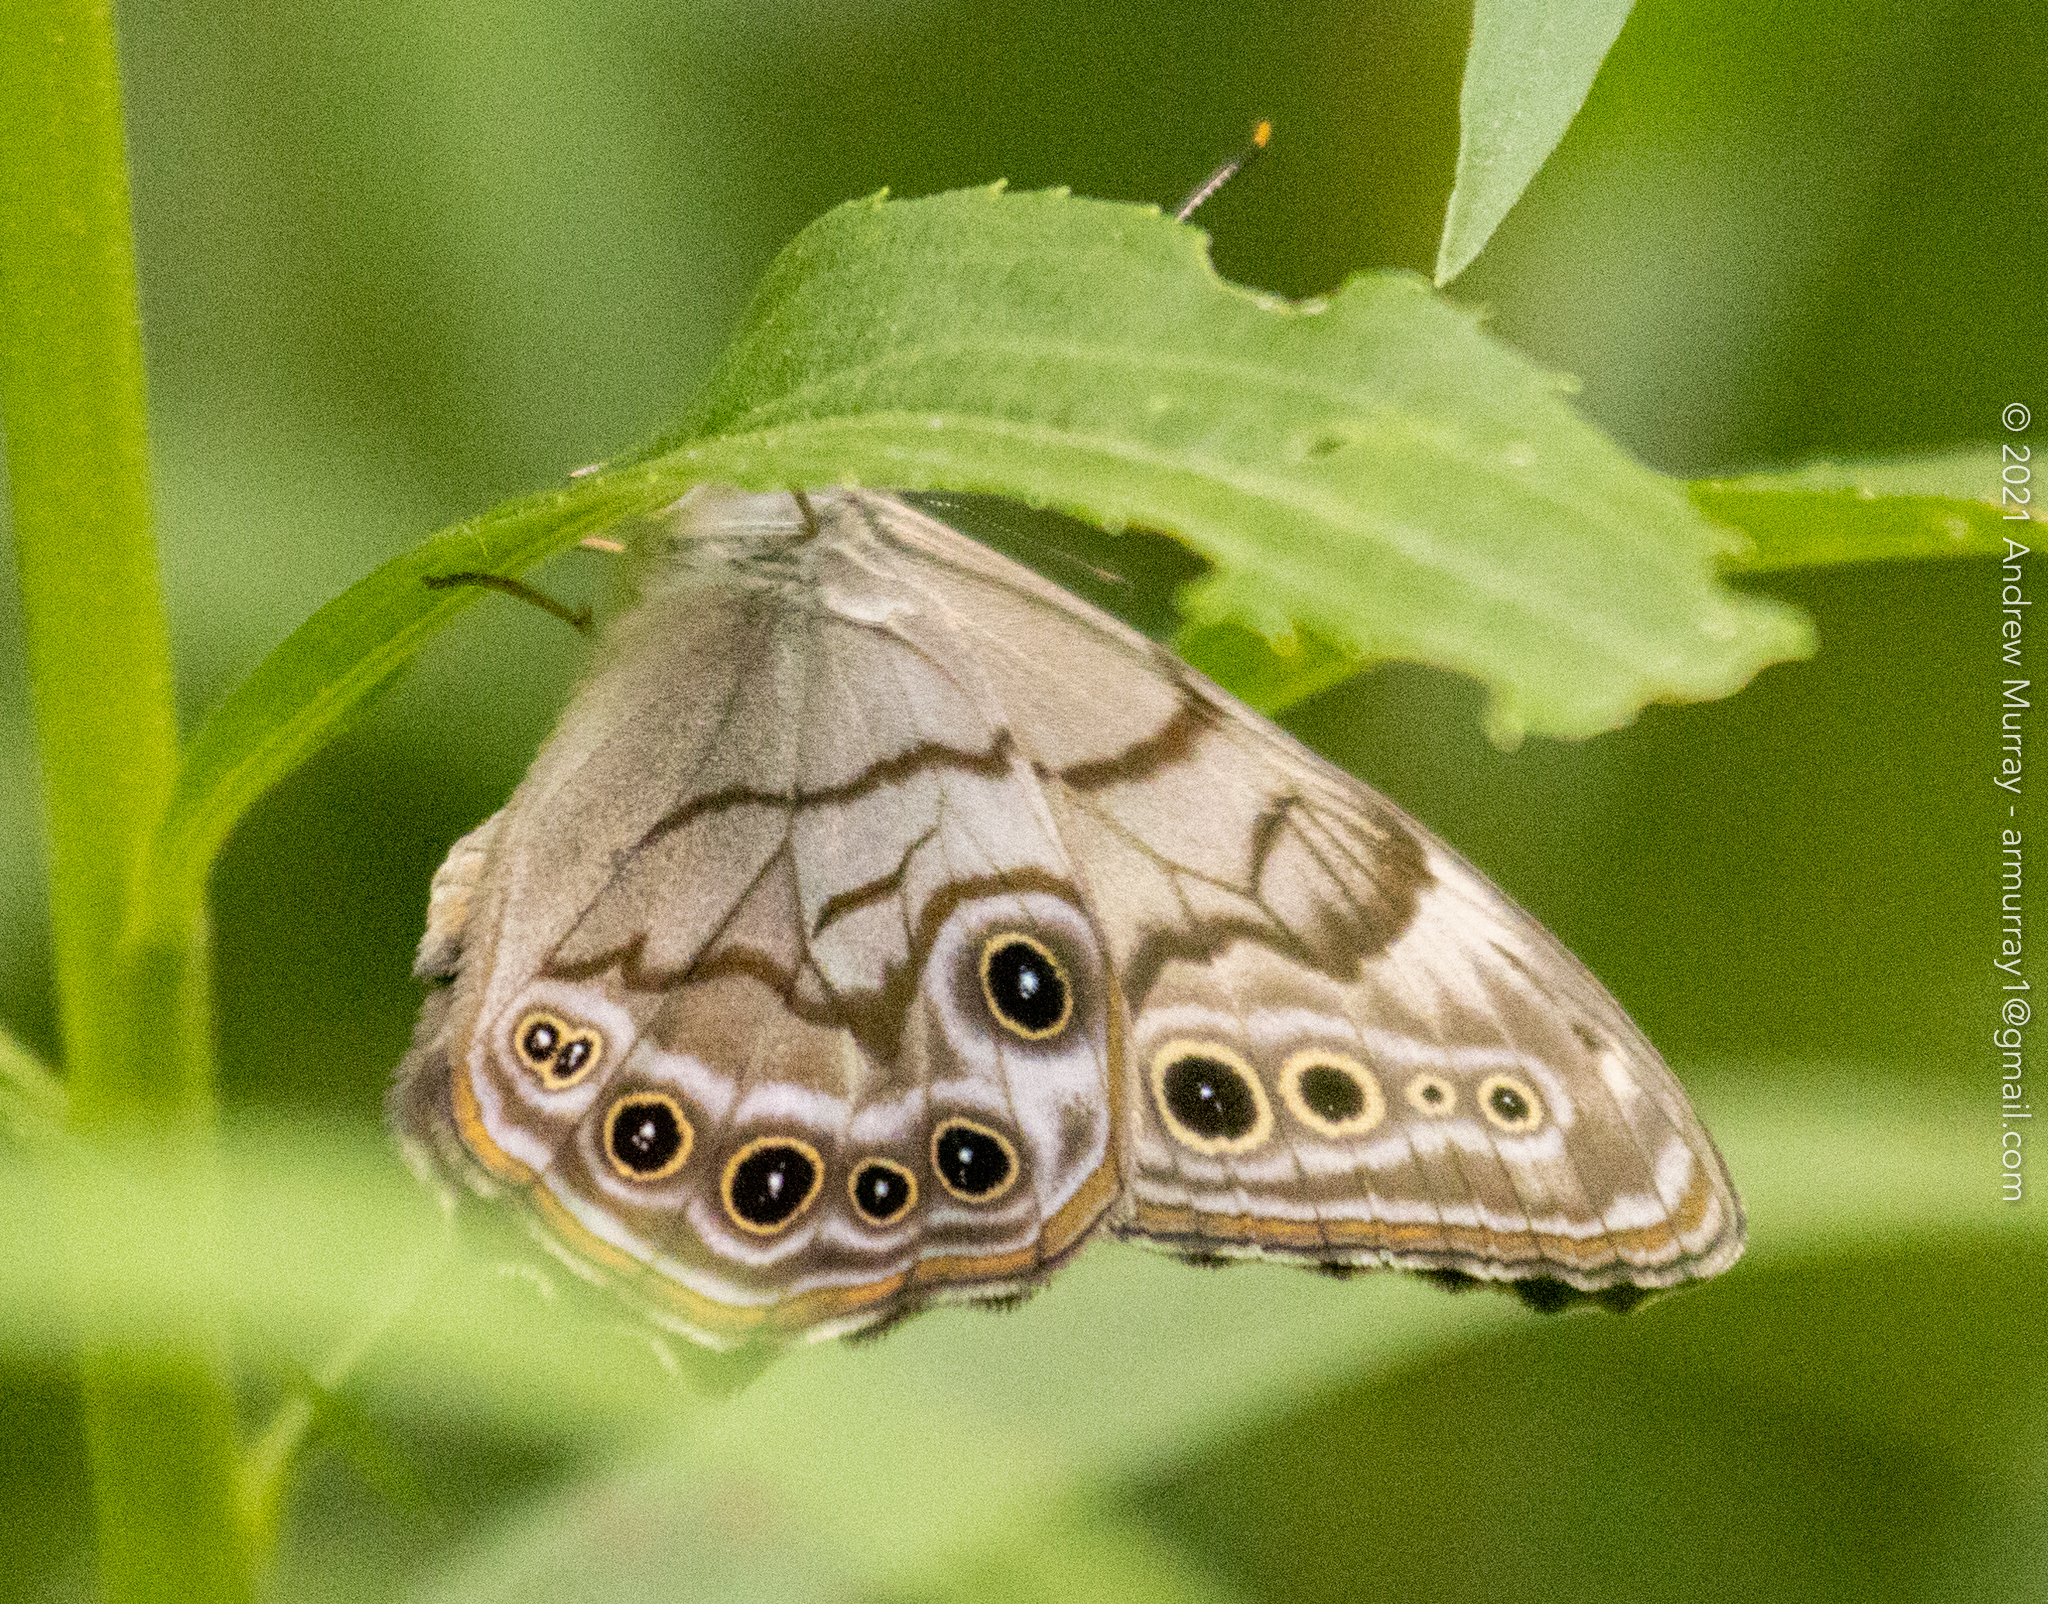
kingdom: Animalia
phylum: Arthropoda
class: Insecta
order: Lepidoptera
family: Nymphalidae
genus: Lethe
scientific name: Lethe anthedon
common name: Northern pearly-eye
